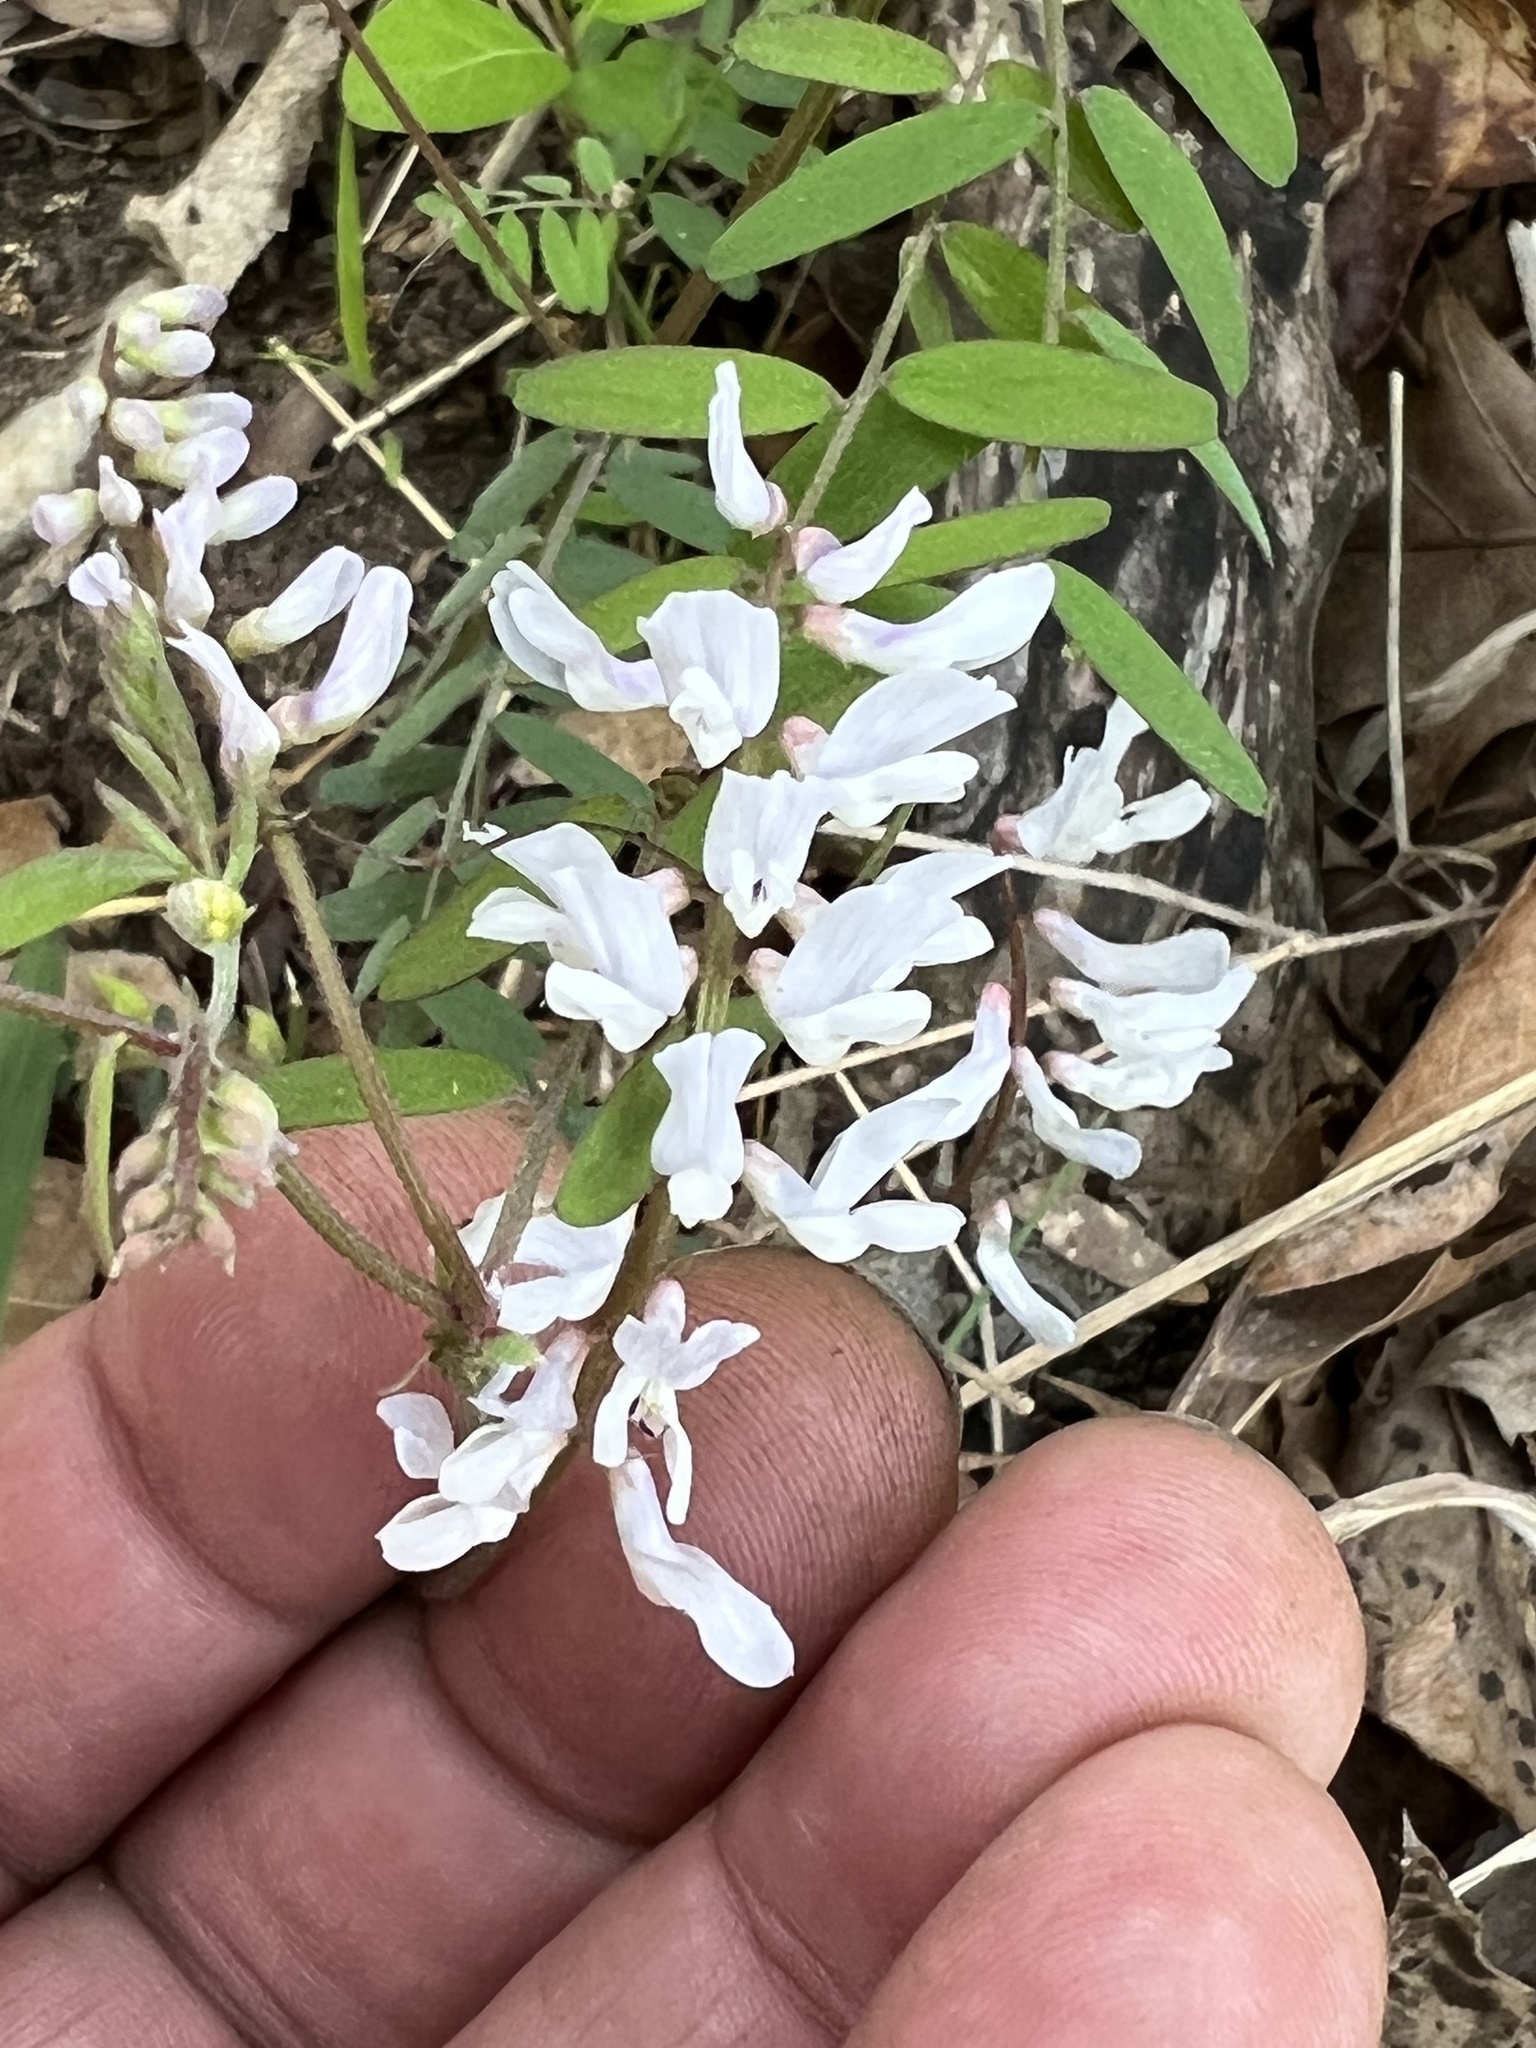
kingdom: Plantae
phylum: Tracheophyta
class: Magnoliopsida
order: Fabales
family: Fabaceae
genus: Vicia
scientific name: Vicia caroliniana
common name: Carolina vetch
